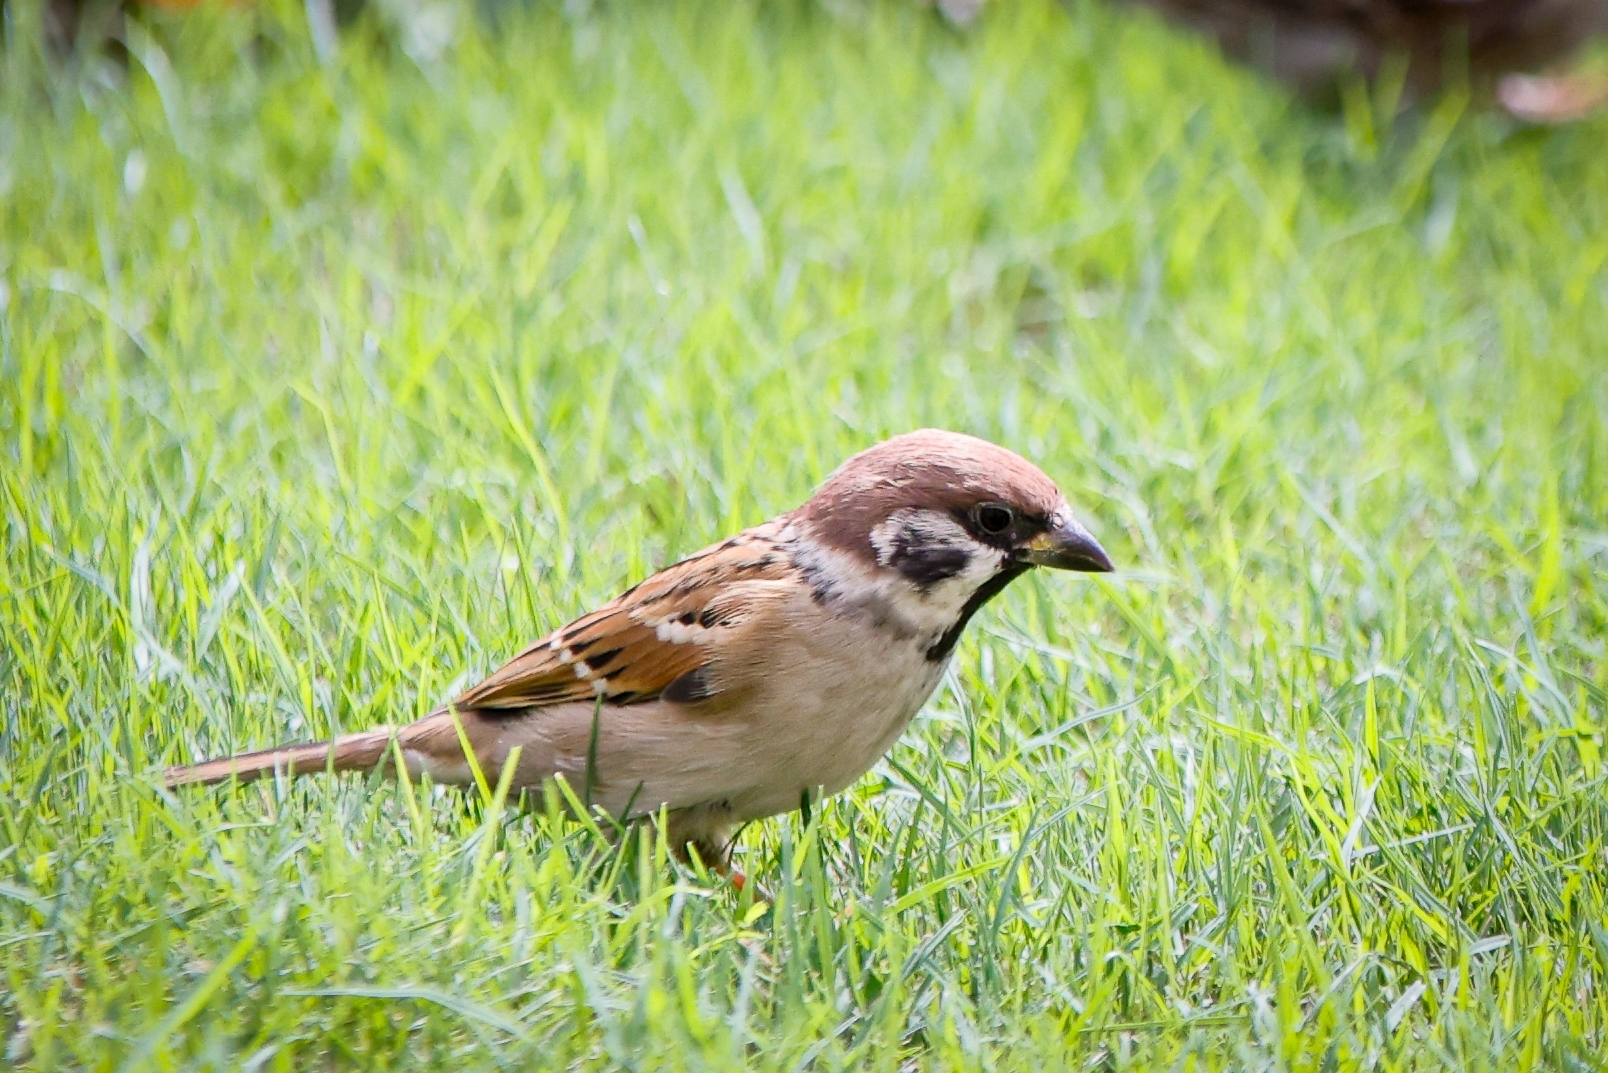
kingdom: Animalia
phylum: Chordata
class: Aves
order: Passeriformes
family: Passeridae
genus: Passer
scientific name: Passer montanus
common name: Eurasian tree sparrow
